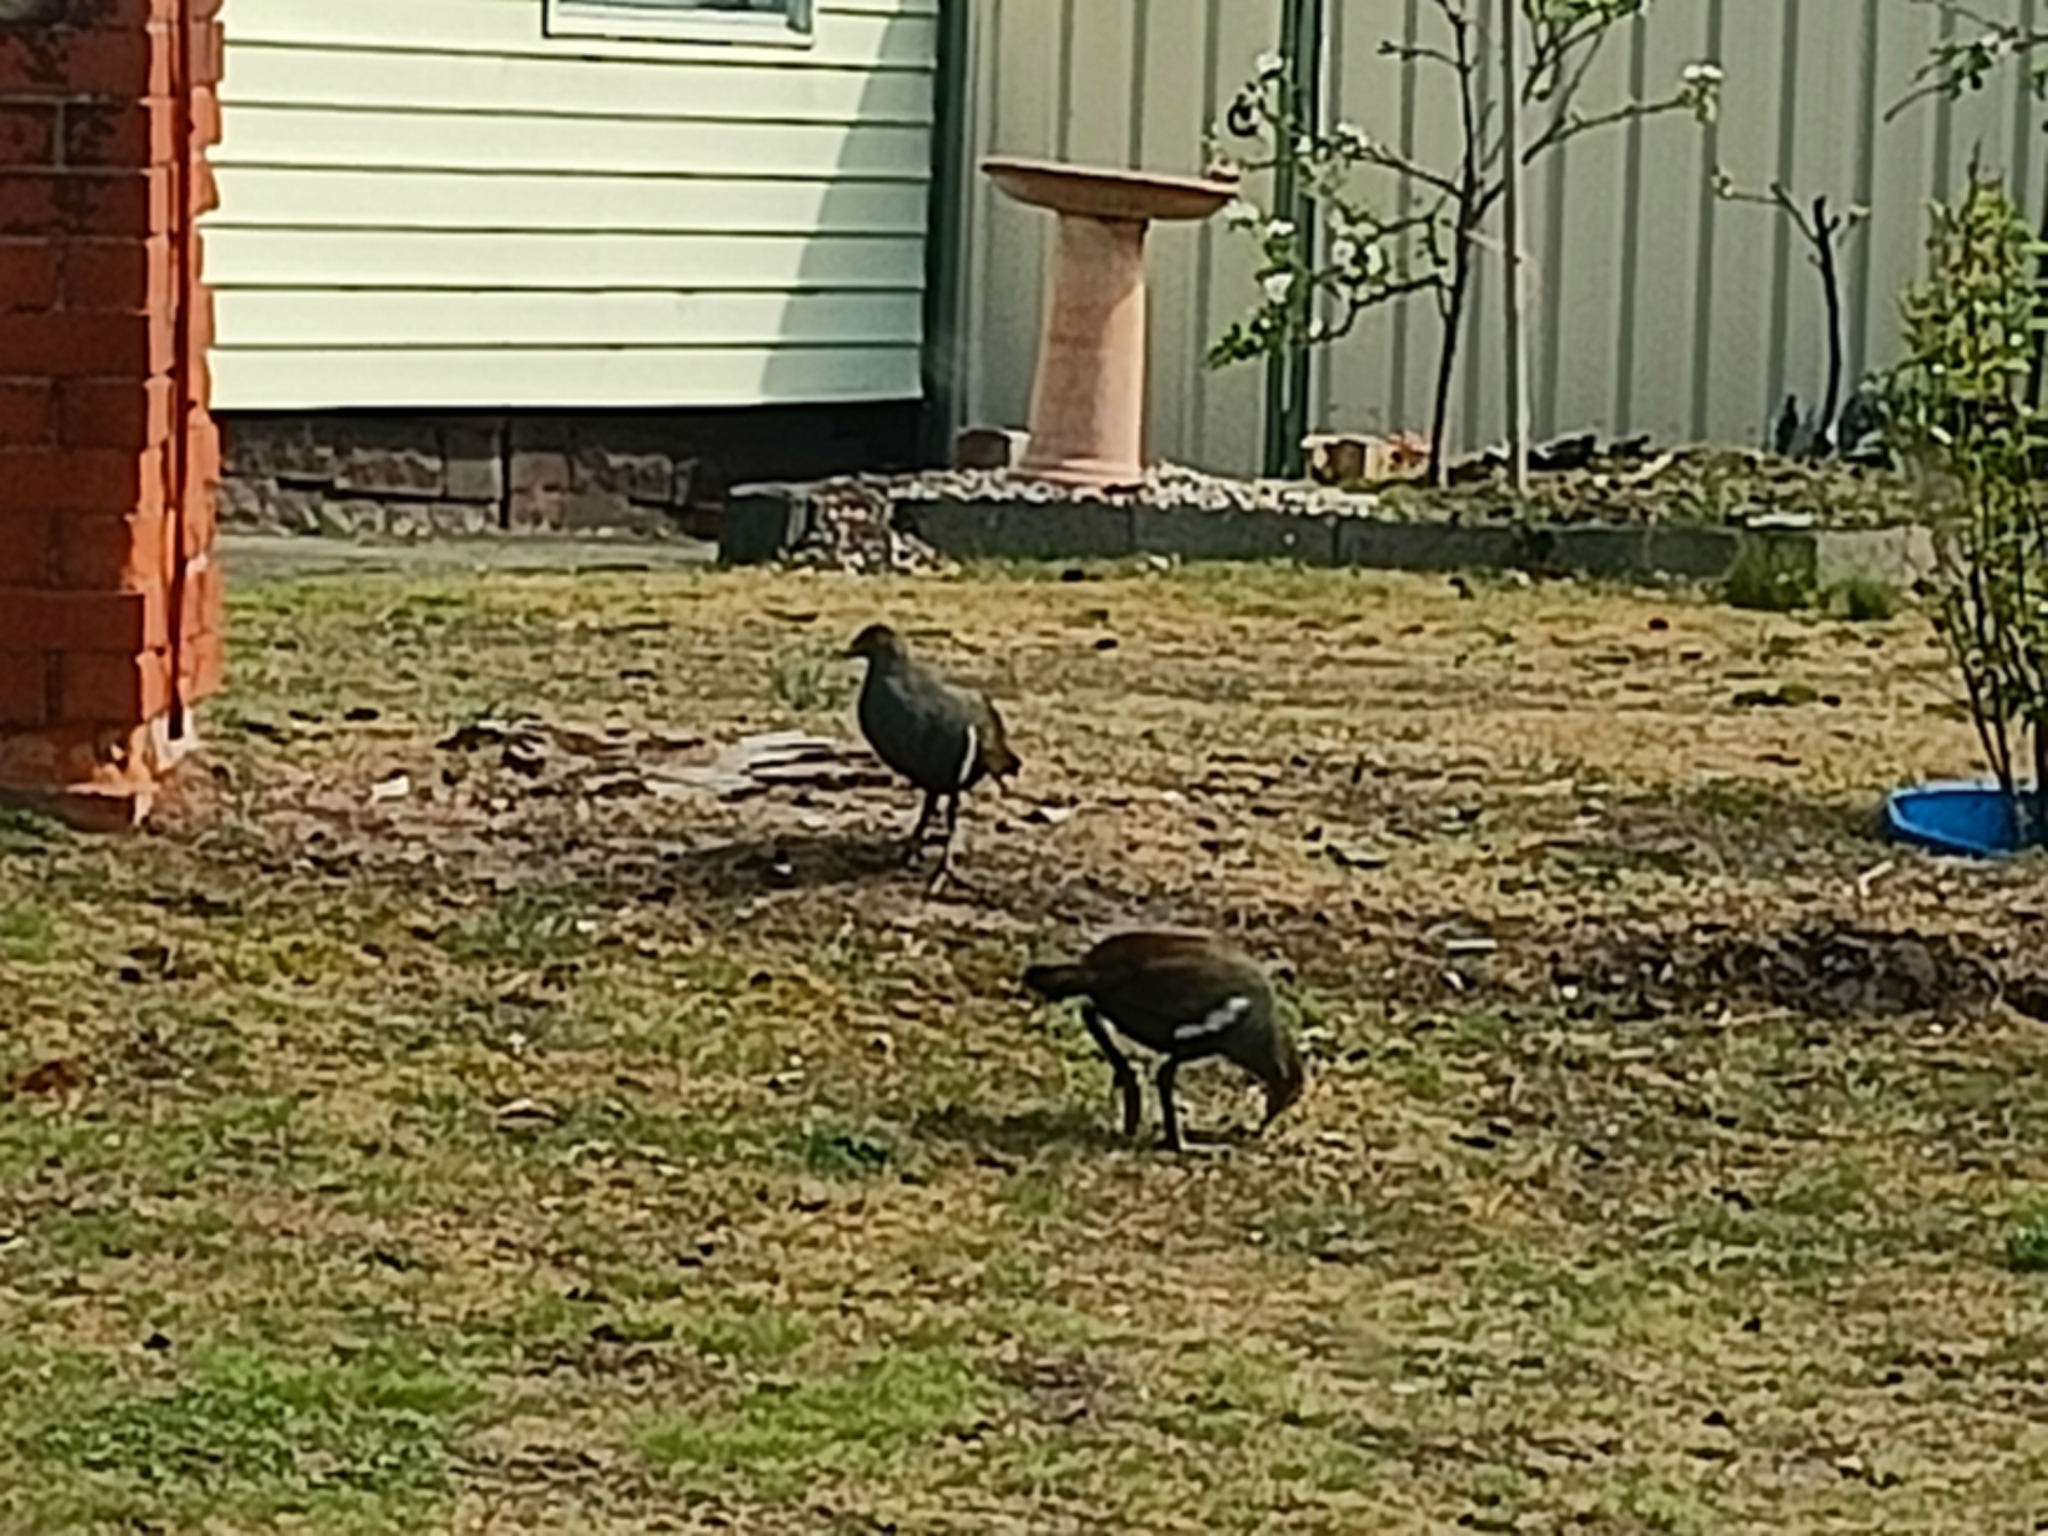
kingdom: Animalia
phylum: Chordata
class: Aves
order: Gruiformes
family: Rallidae
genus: Gallinula
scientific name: Gallinula mortierii
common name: Tasmanian nativehen
